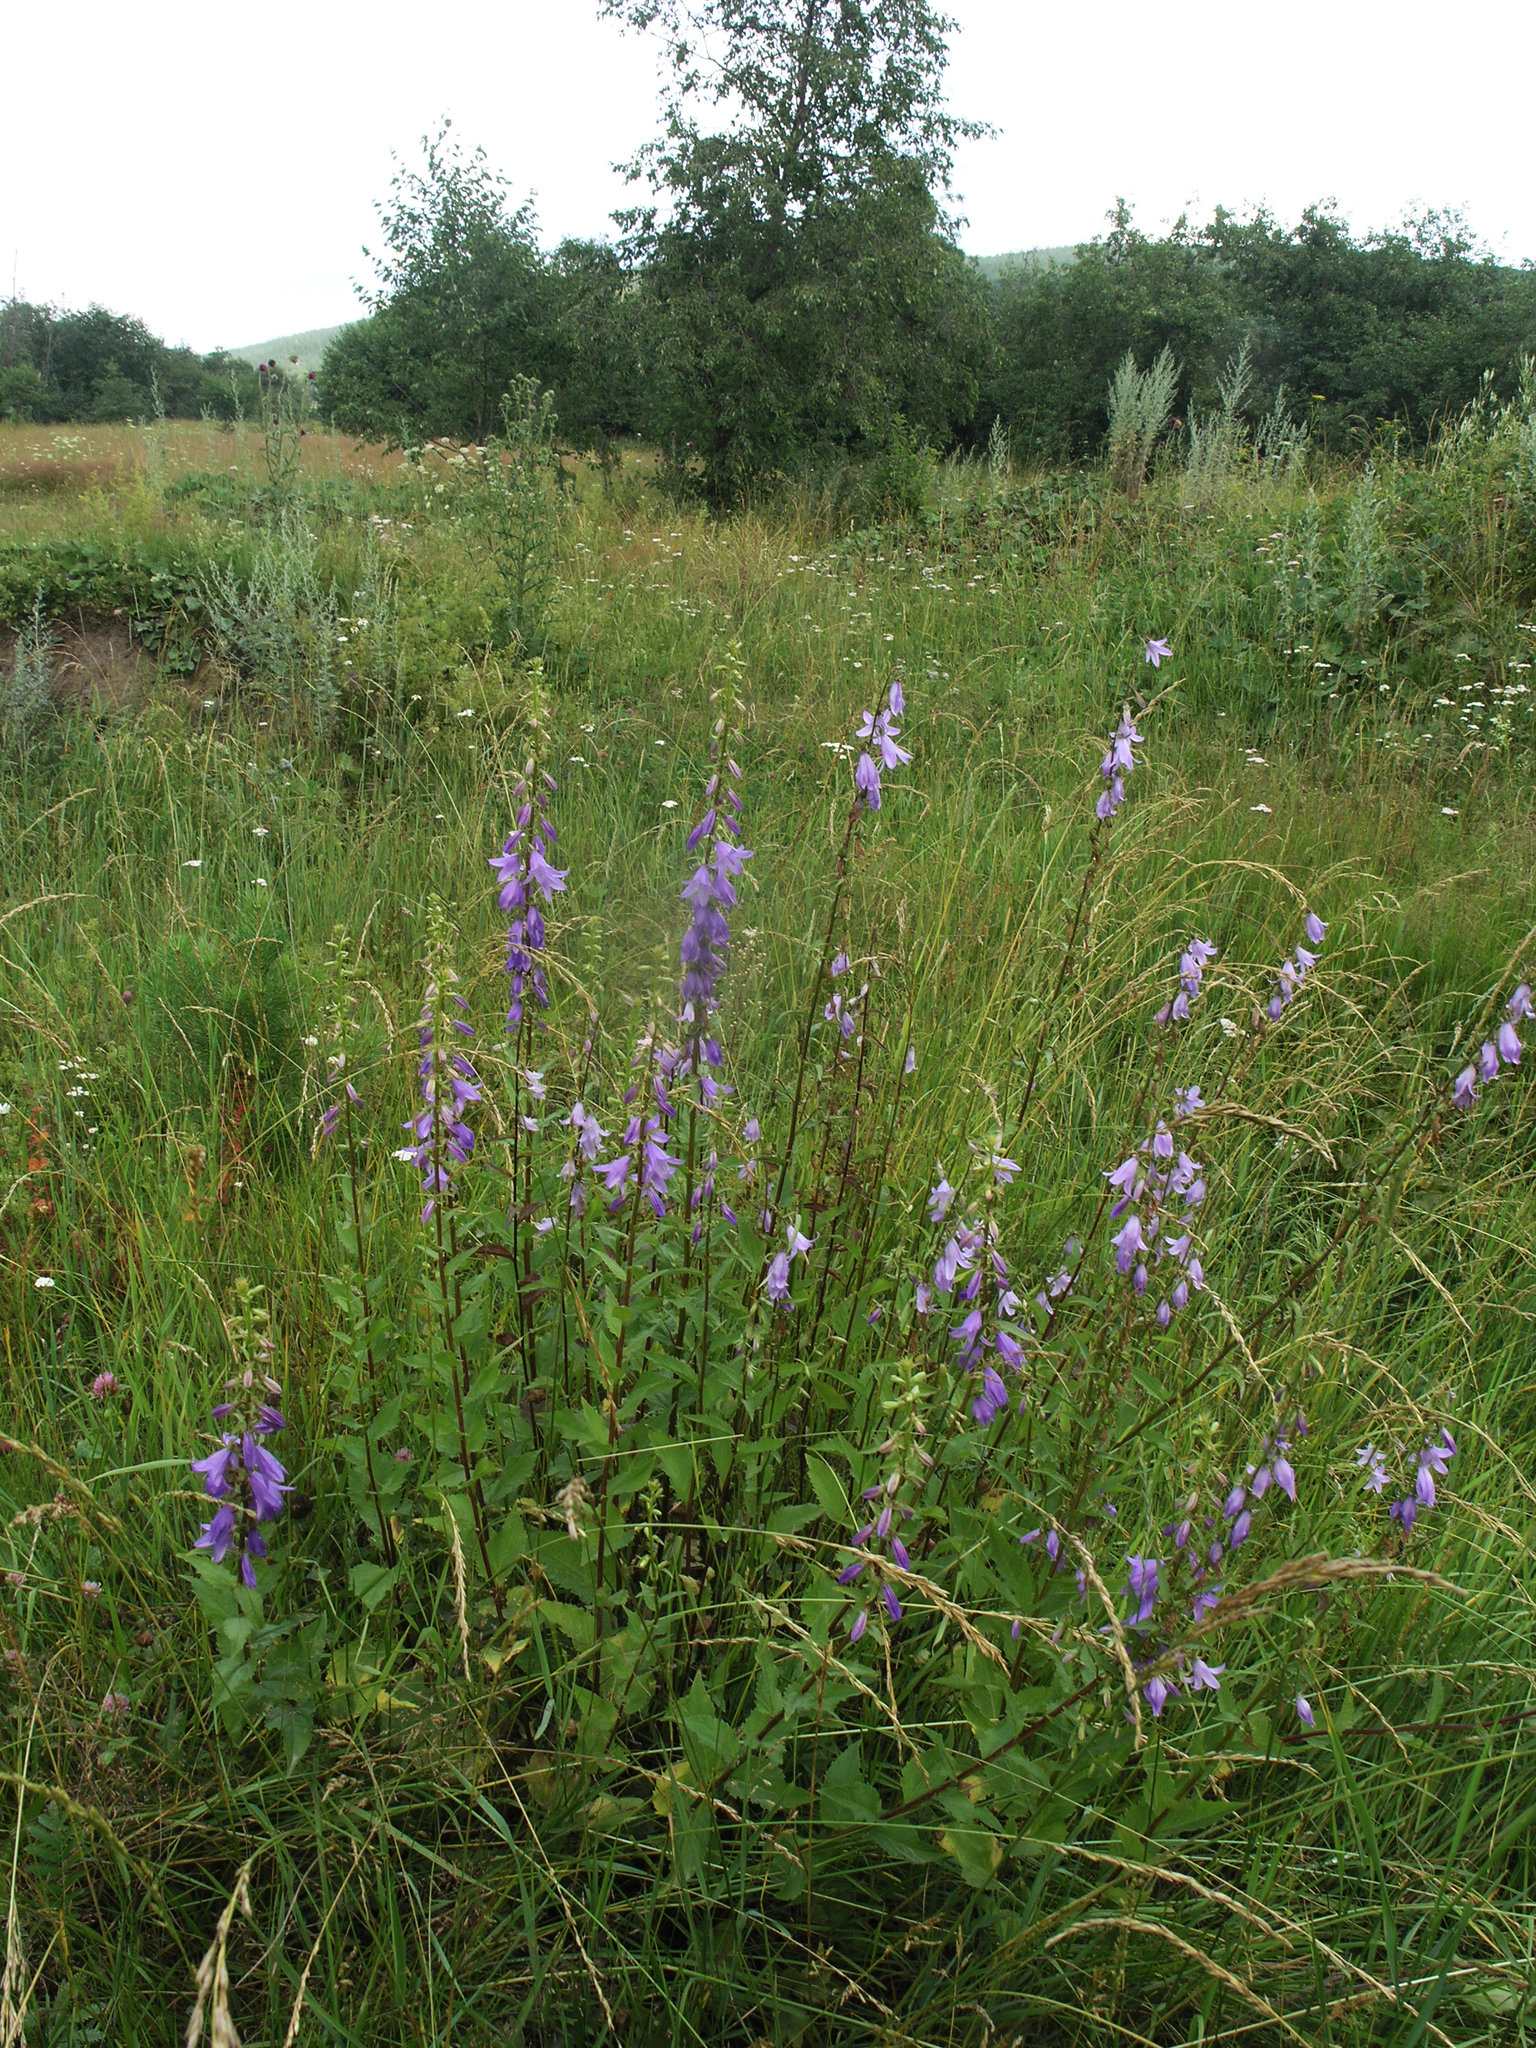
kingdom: Plantae
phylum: Tracheophyta
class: Magnoliopsida
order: Asterales
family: Campanulaceae
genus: Campanula
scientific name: Campanula rapunculoides
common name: Creeping bellflower
